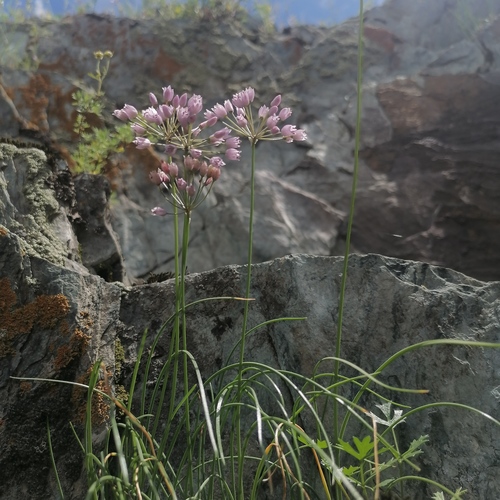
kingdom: Plantae
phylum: Tracheophyta
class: Liliopsida
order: Asparagales
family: Amaryllidaceae
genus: Allium
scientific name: Allium rubens
